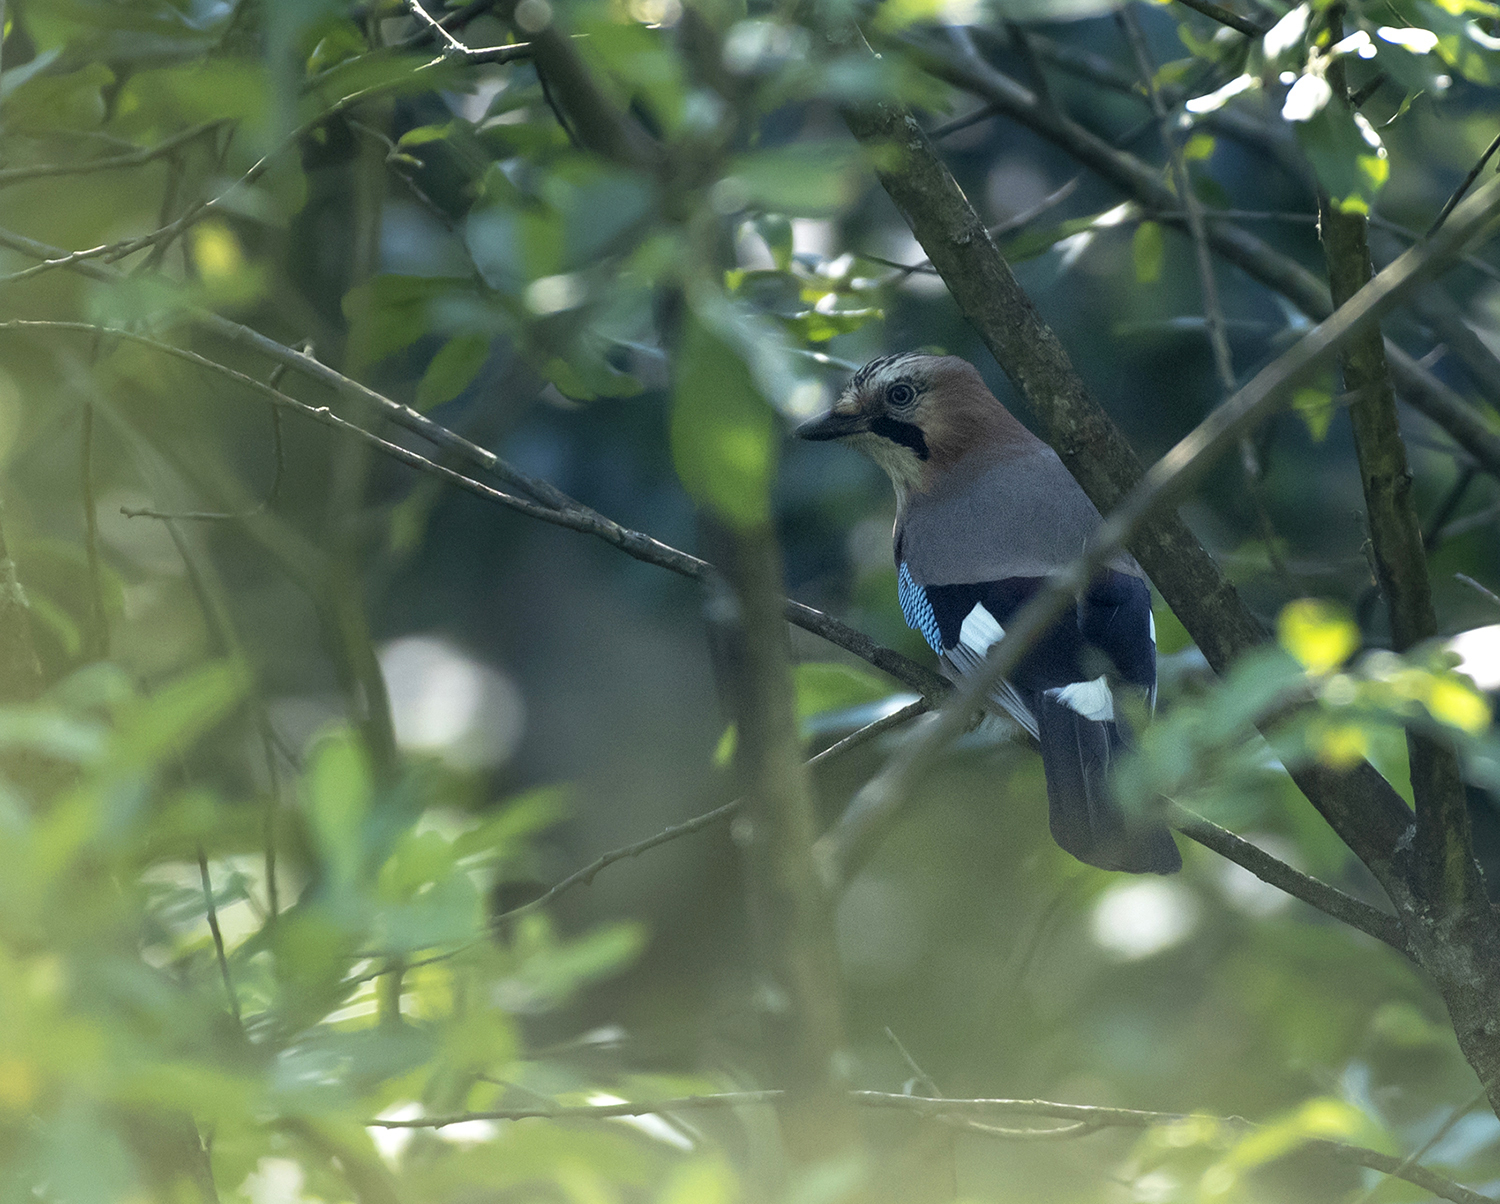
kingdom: Animalia
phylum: Chordata
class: Aves
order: Passeriformes
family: Corvidae
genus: Garrulus
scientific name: Garrulus glandarius
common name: Eurasian jay
